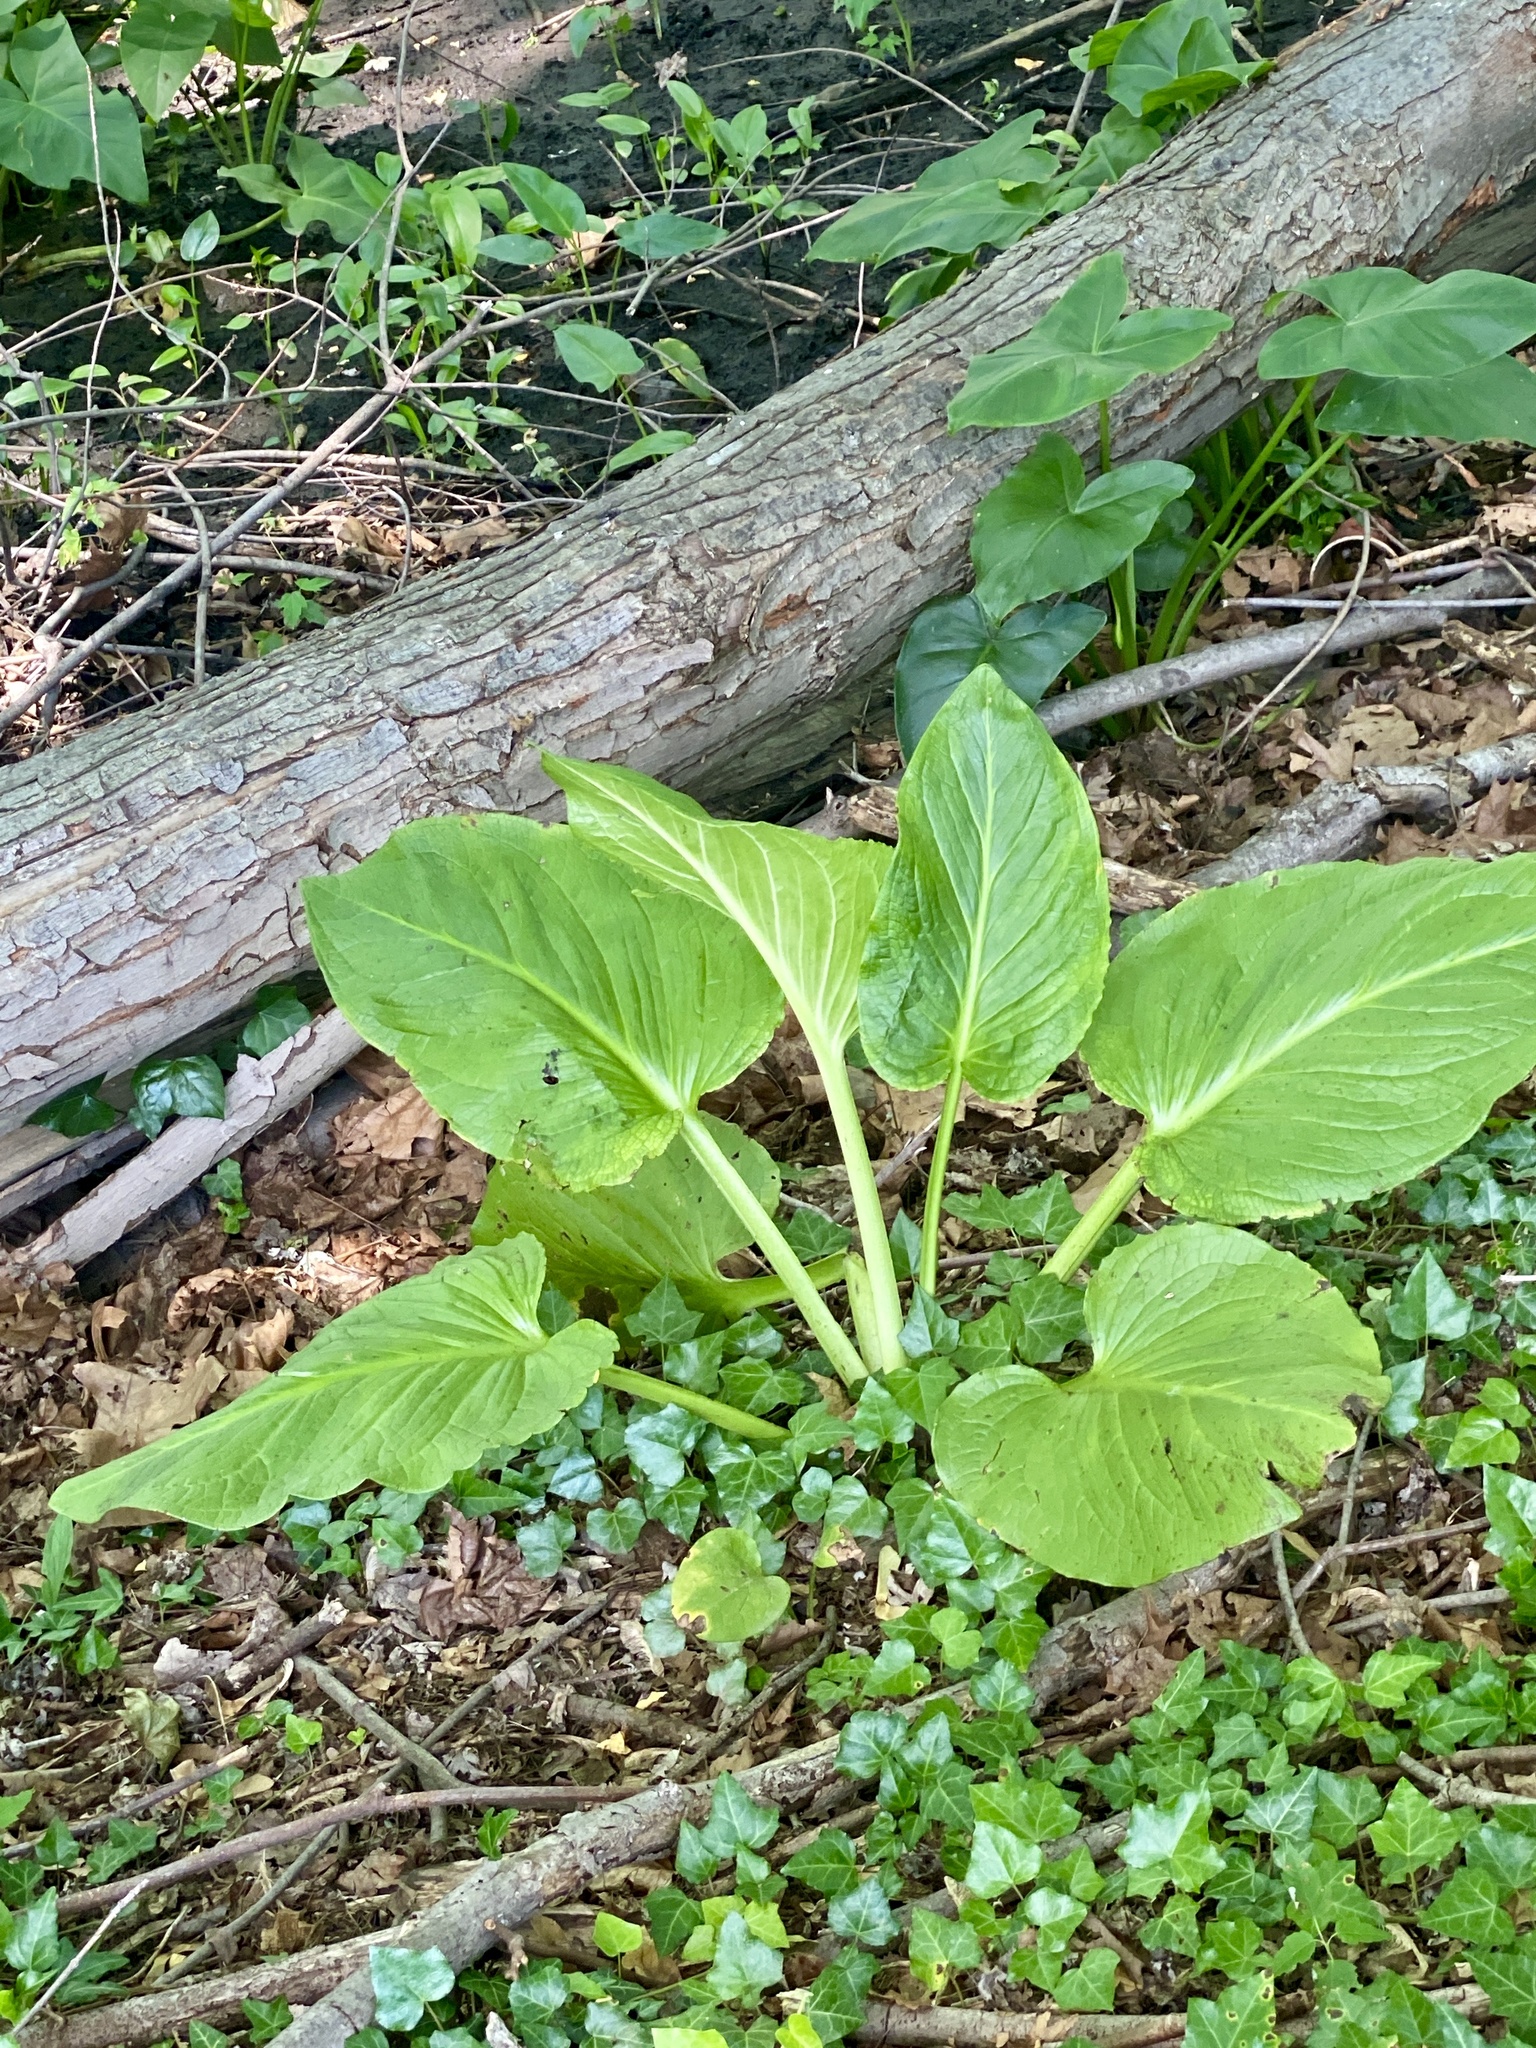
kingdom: Plantae
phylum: Tracheophyta
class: Liliopsida
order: Alismatales
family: Araceae
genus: Symplocarpus
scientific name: Symplocarpus foetidus
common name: Eastern skunk cabbage
